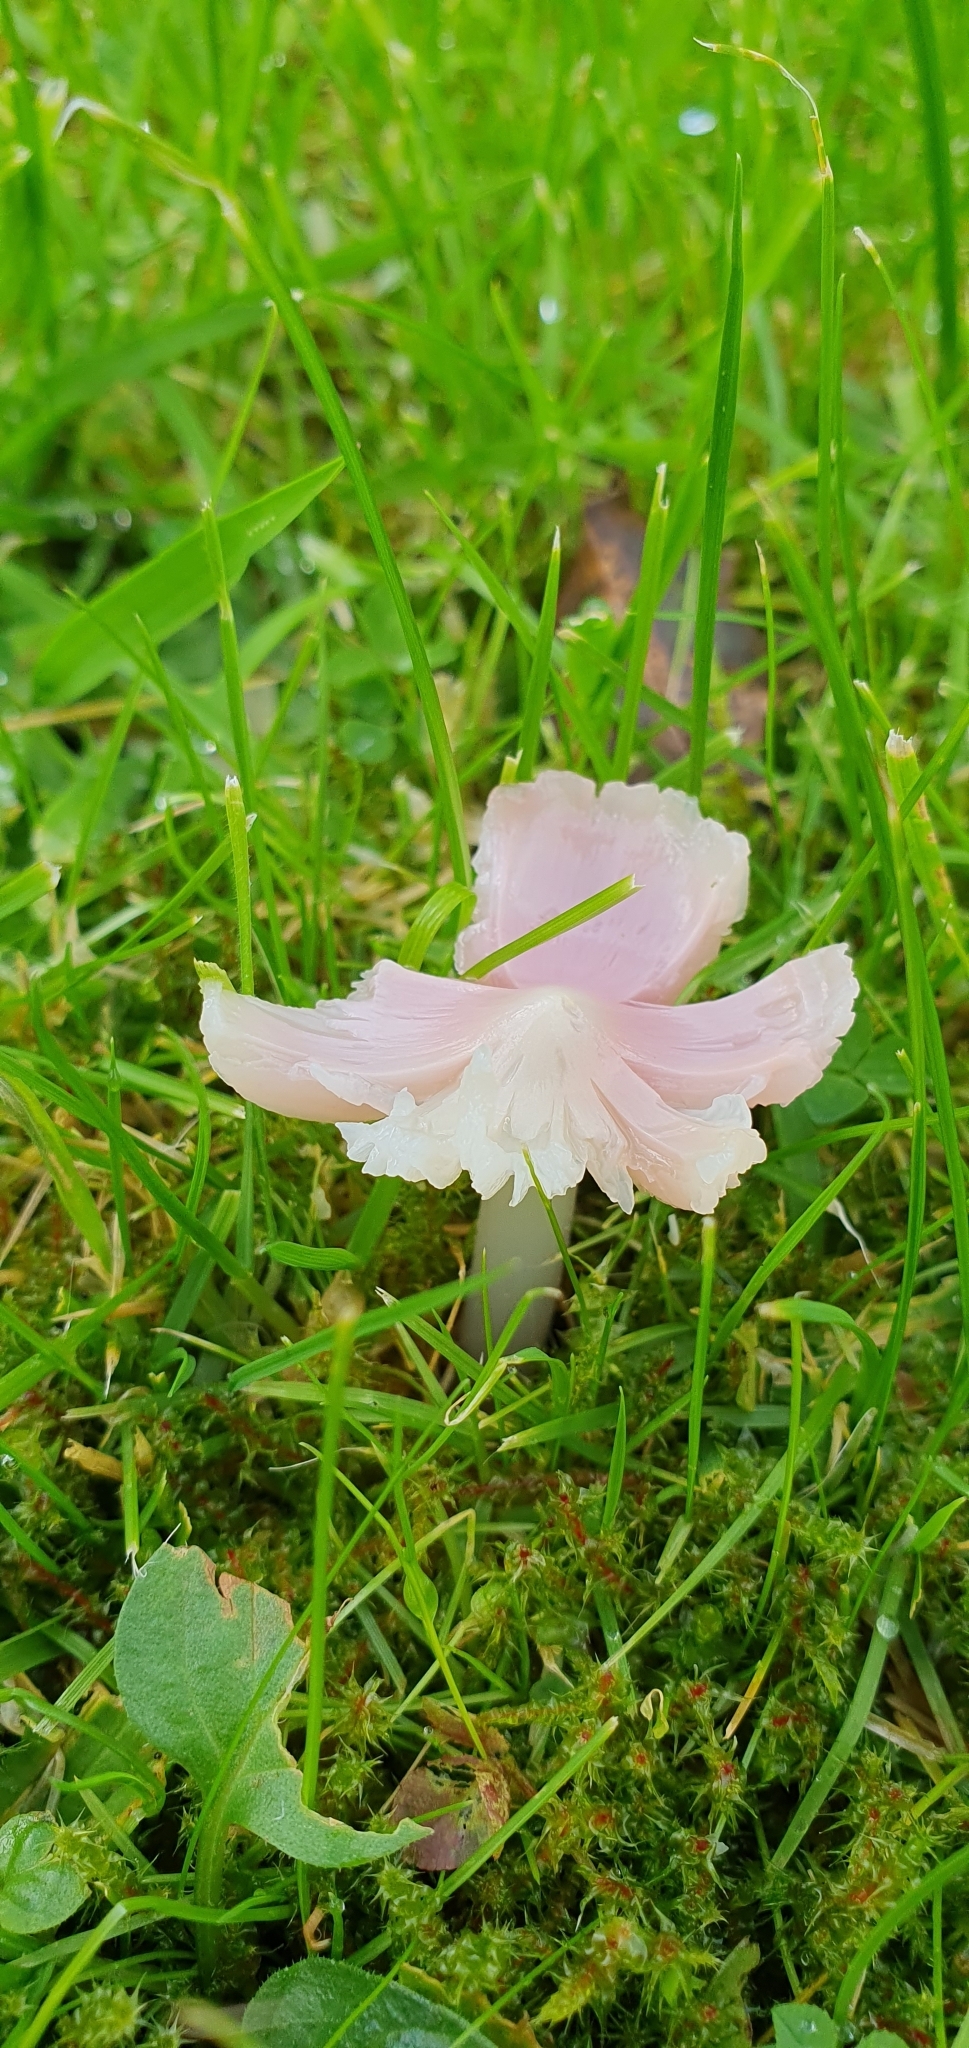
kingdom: Fungi
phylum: Basidiomycota
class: Agaricomycetes
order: Agaricales
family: Hygrophoraceae
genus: Porpolomopsis
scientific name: Porpolomopsis calyptriformis
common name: Pink waxcap
